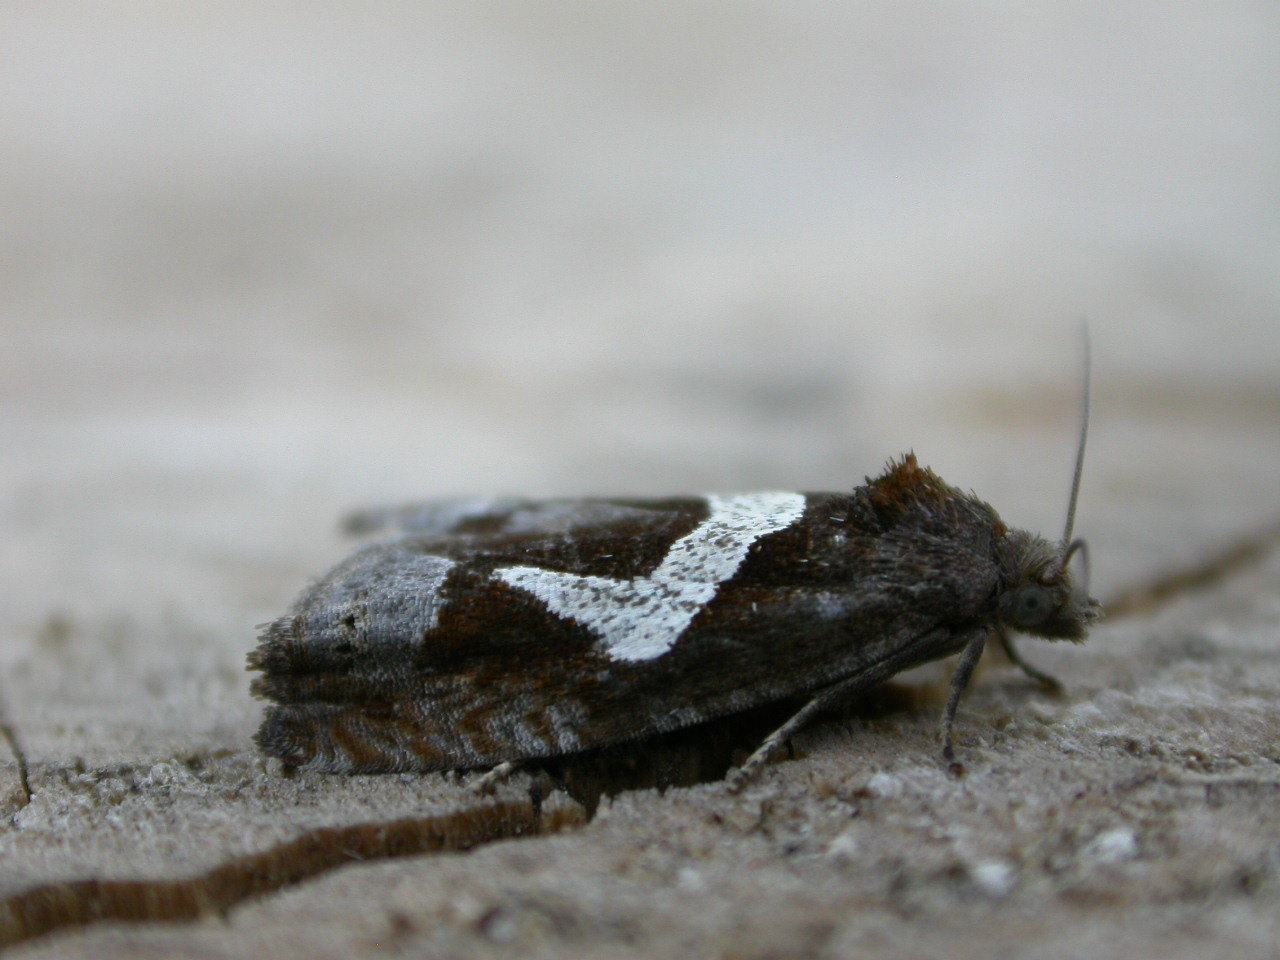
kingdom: Animalia
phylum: Arthropoda
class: Insecta
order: Lepidoptera
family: Tortricidae
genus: Epiblema
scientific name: Epiblema foenella
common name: White-foot bell
